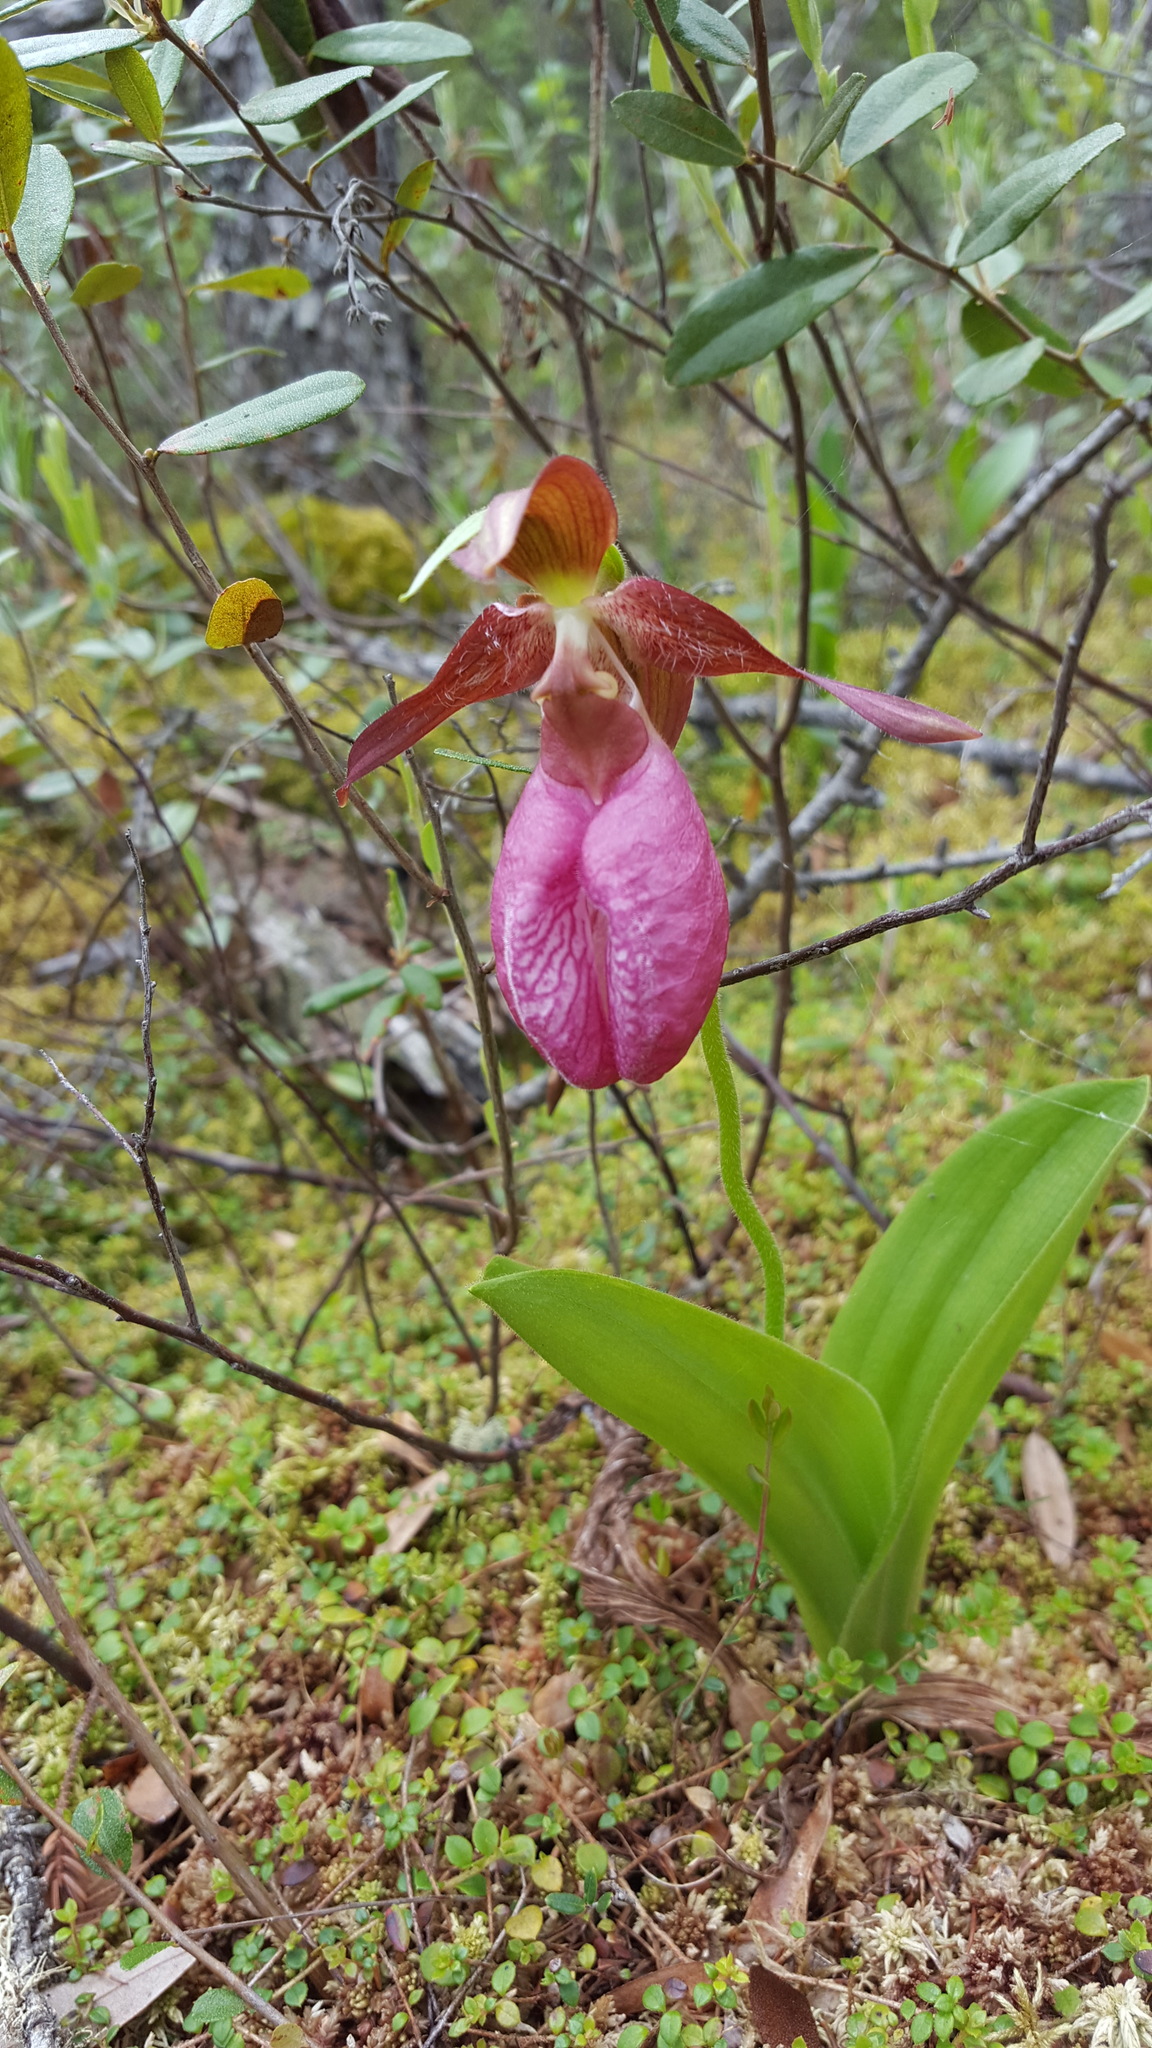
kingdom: Plantae
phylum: Tracheophyta
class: Liliopsida
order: Asparagales
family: Orchidaceae
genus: Cypripedium
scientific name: Cypripedium acaule
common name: Pink lady's-slipper
